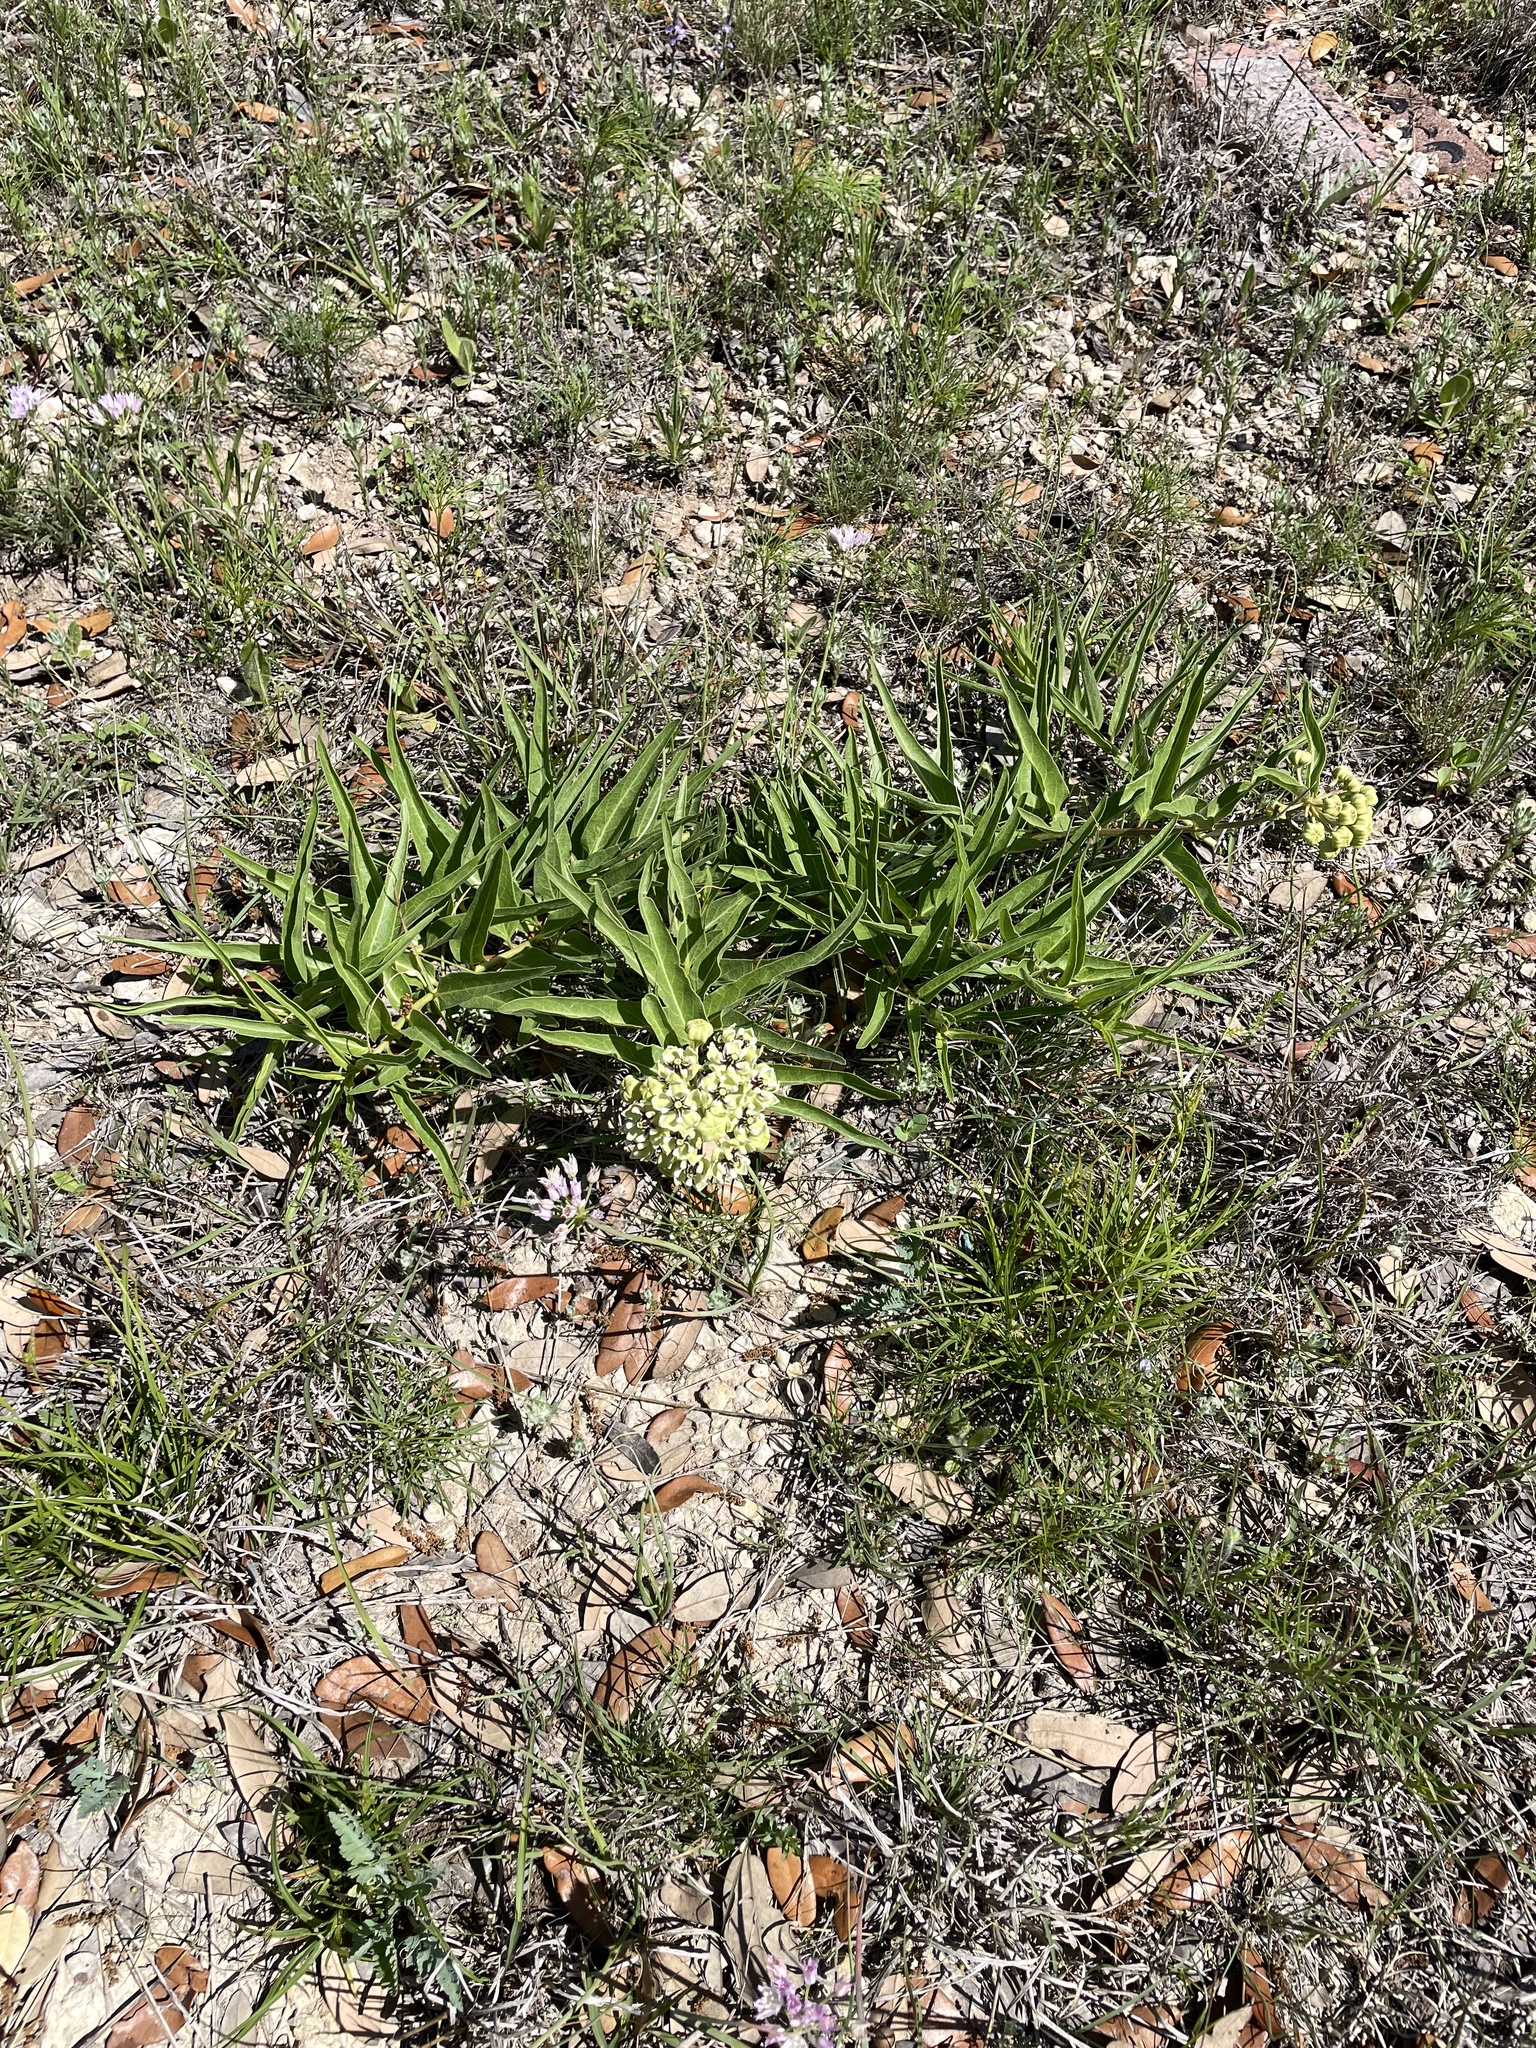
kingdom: Plantae
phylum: Tracheophyta
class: Magnoliopsida
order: Gentianales
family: Apocynaceae
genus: Asclepias
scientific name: Asclepias asperula
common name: Antelope horns
